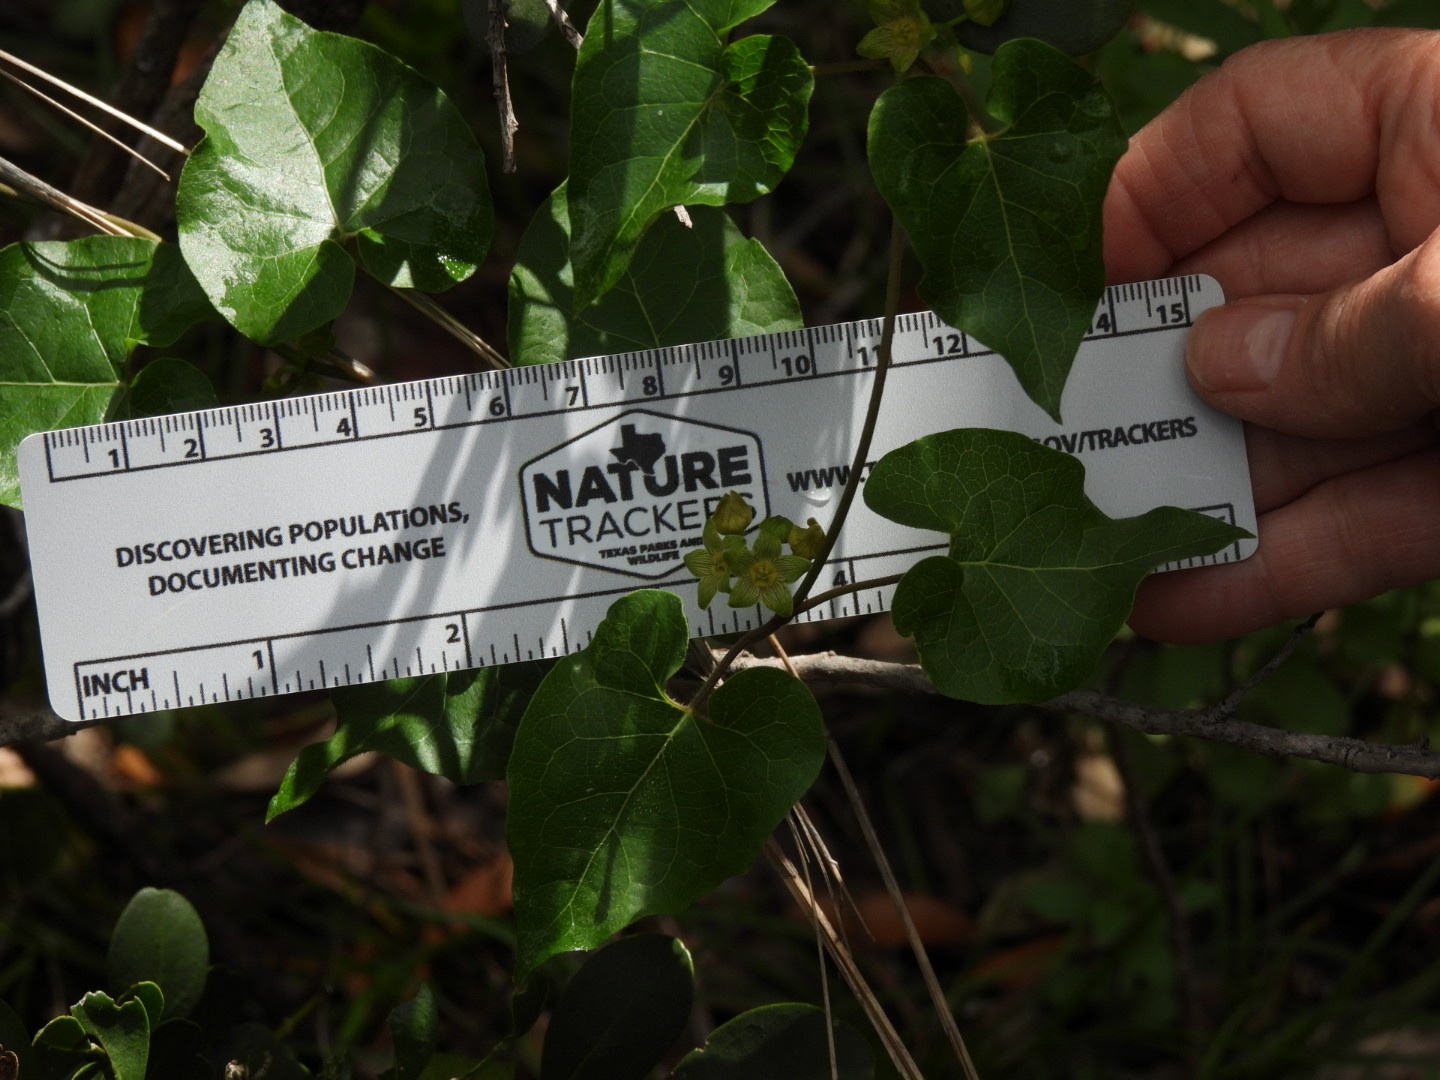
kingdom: Plantae
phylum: Tracheophyta
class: Magnoliopsida
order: Gentianales
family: Apocynaceae
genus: Matelea
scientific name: Matelea edwardsensis
